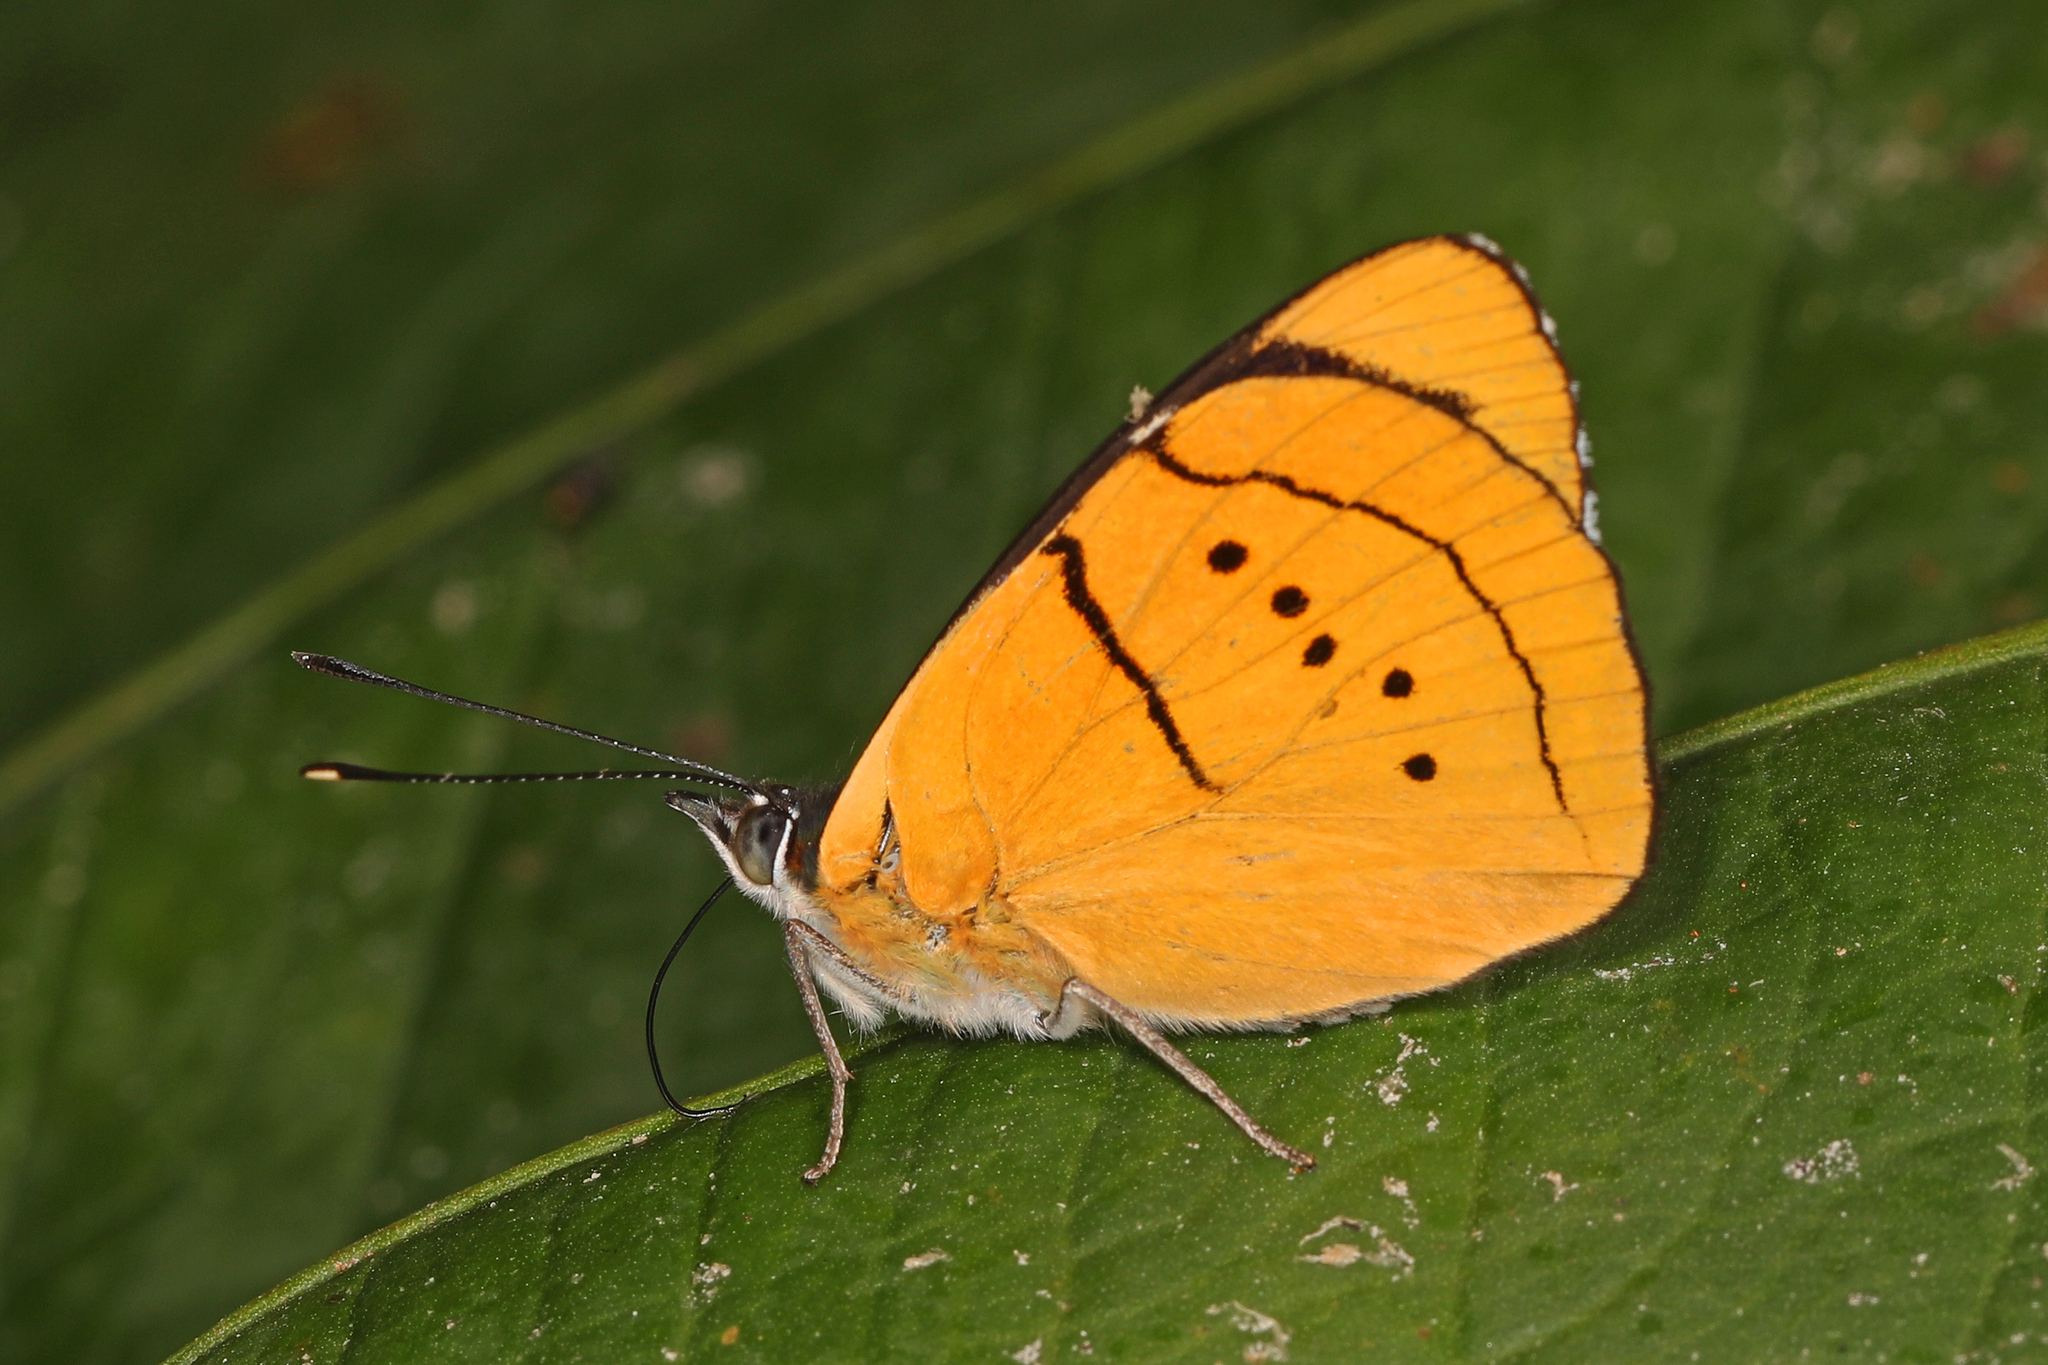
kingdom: Animalia
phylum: Arthropoda
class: Insecta
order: Lepidoptera
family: Nymphalidae
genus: Perisama
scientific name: Perisama humboldtii
